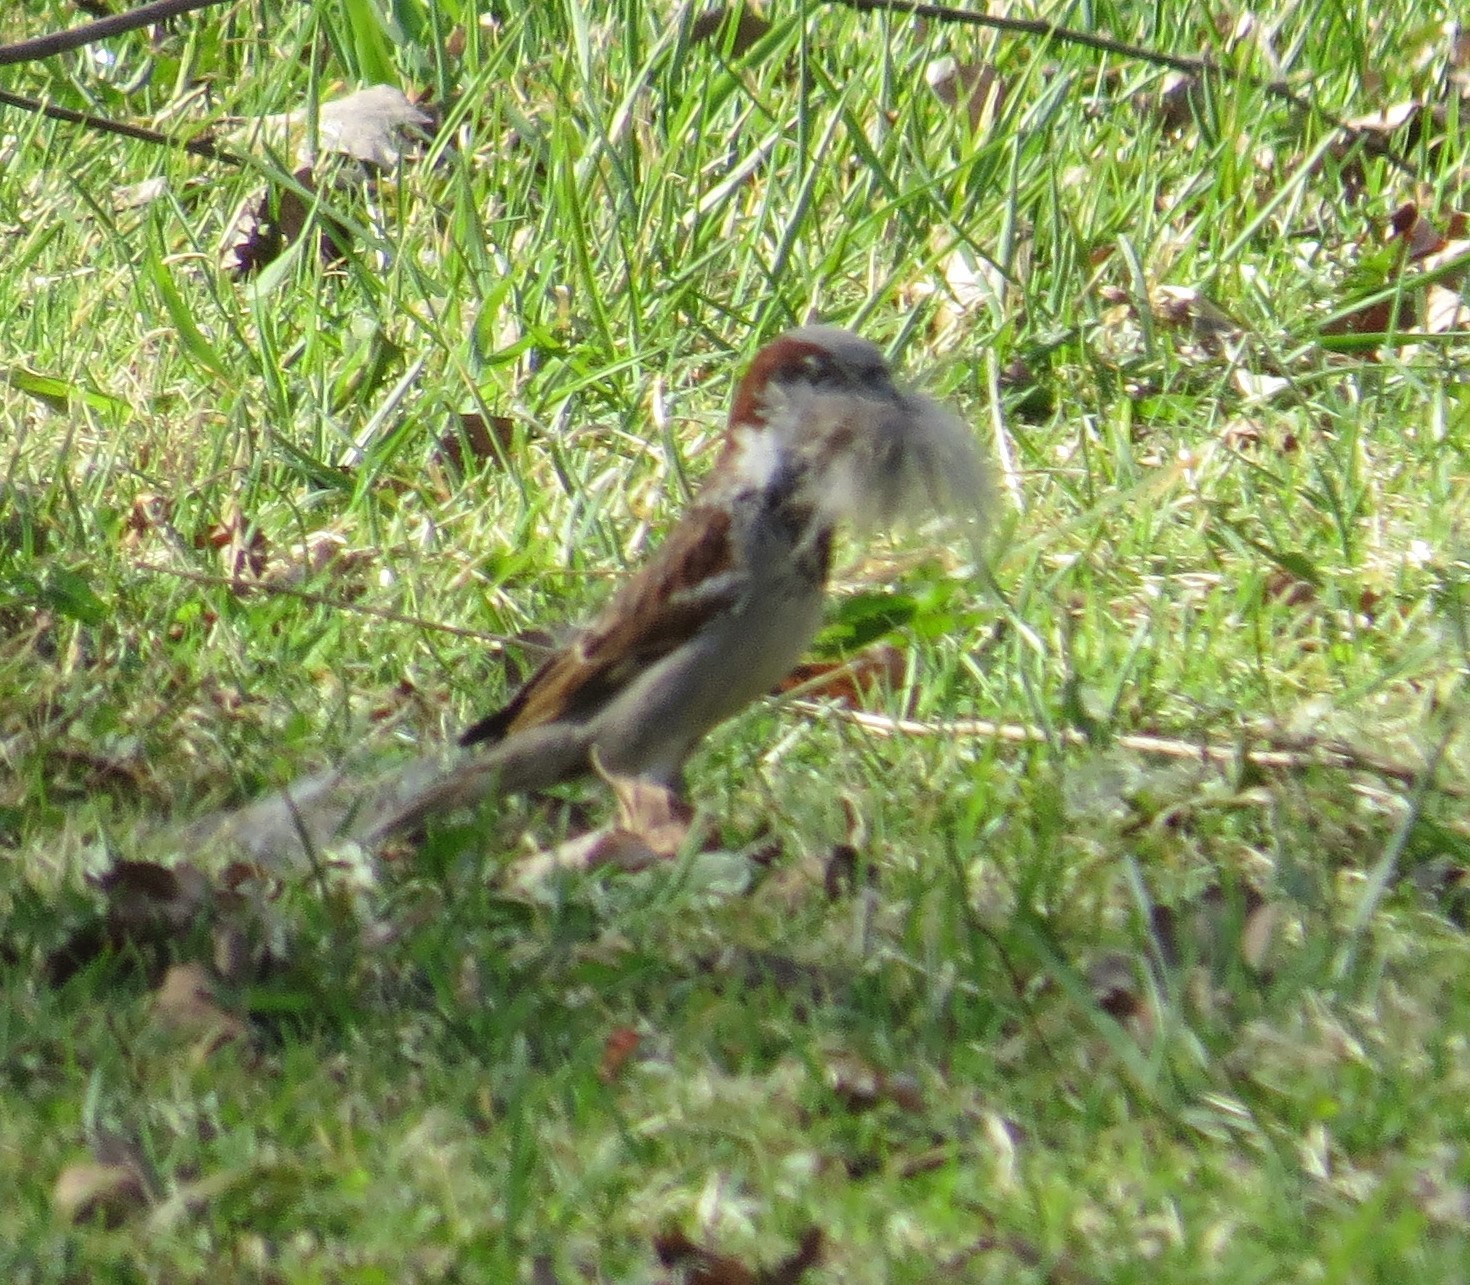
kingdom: Animalia
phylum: Chordata
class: Aves
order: Passeriformes
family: Passeridae
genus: Passer
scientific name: Passer domesticus
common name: House sparrow
